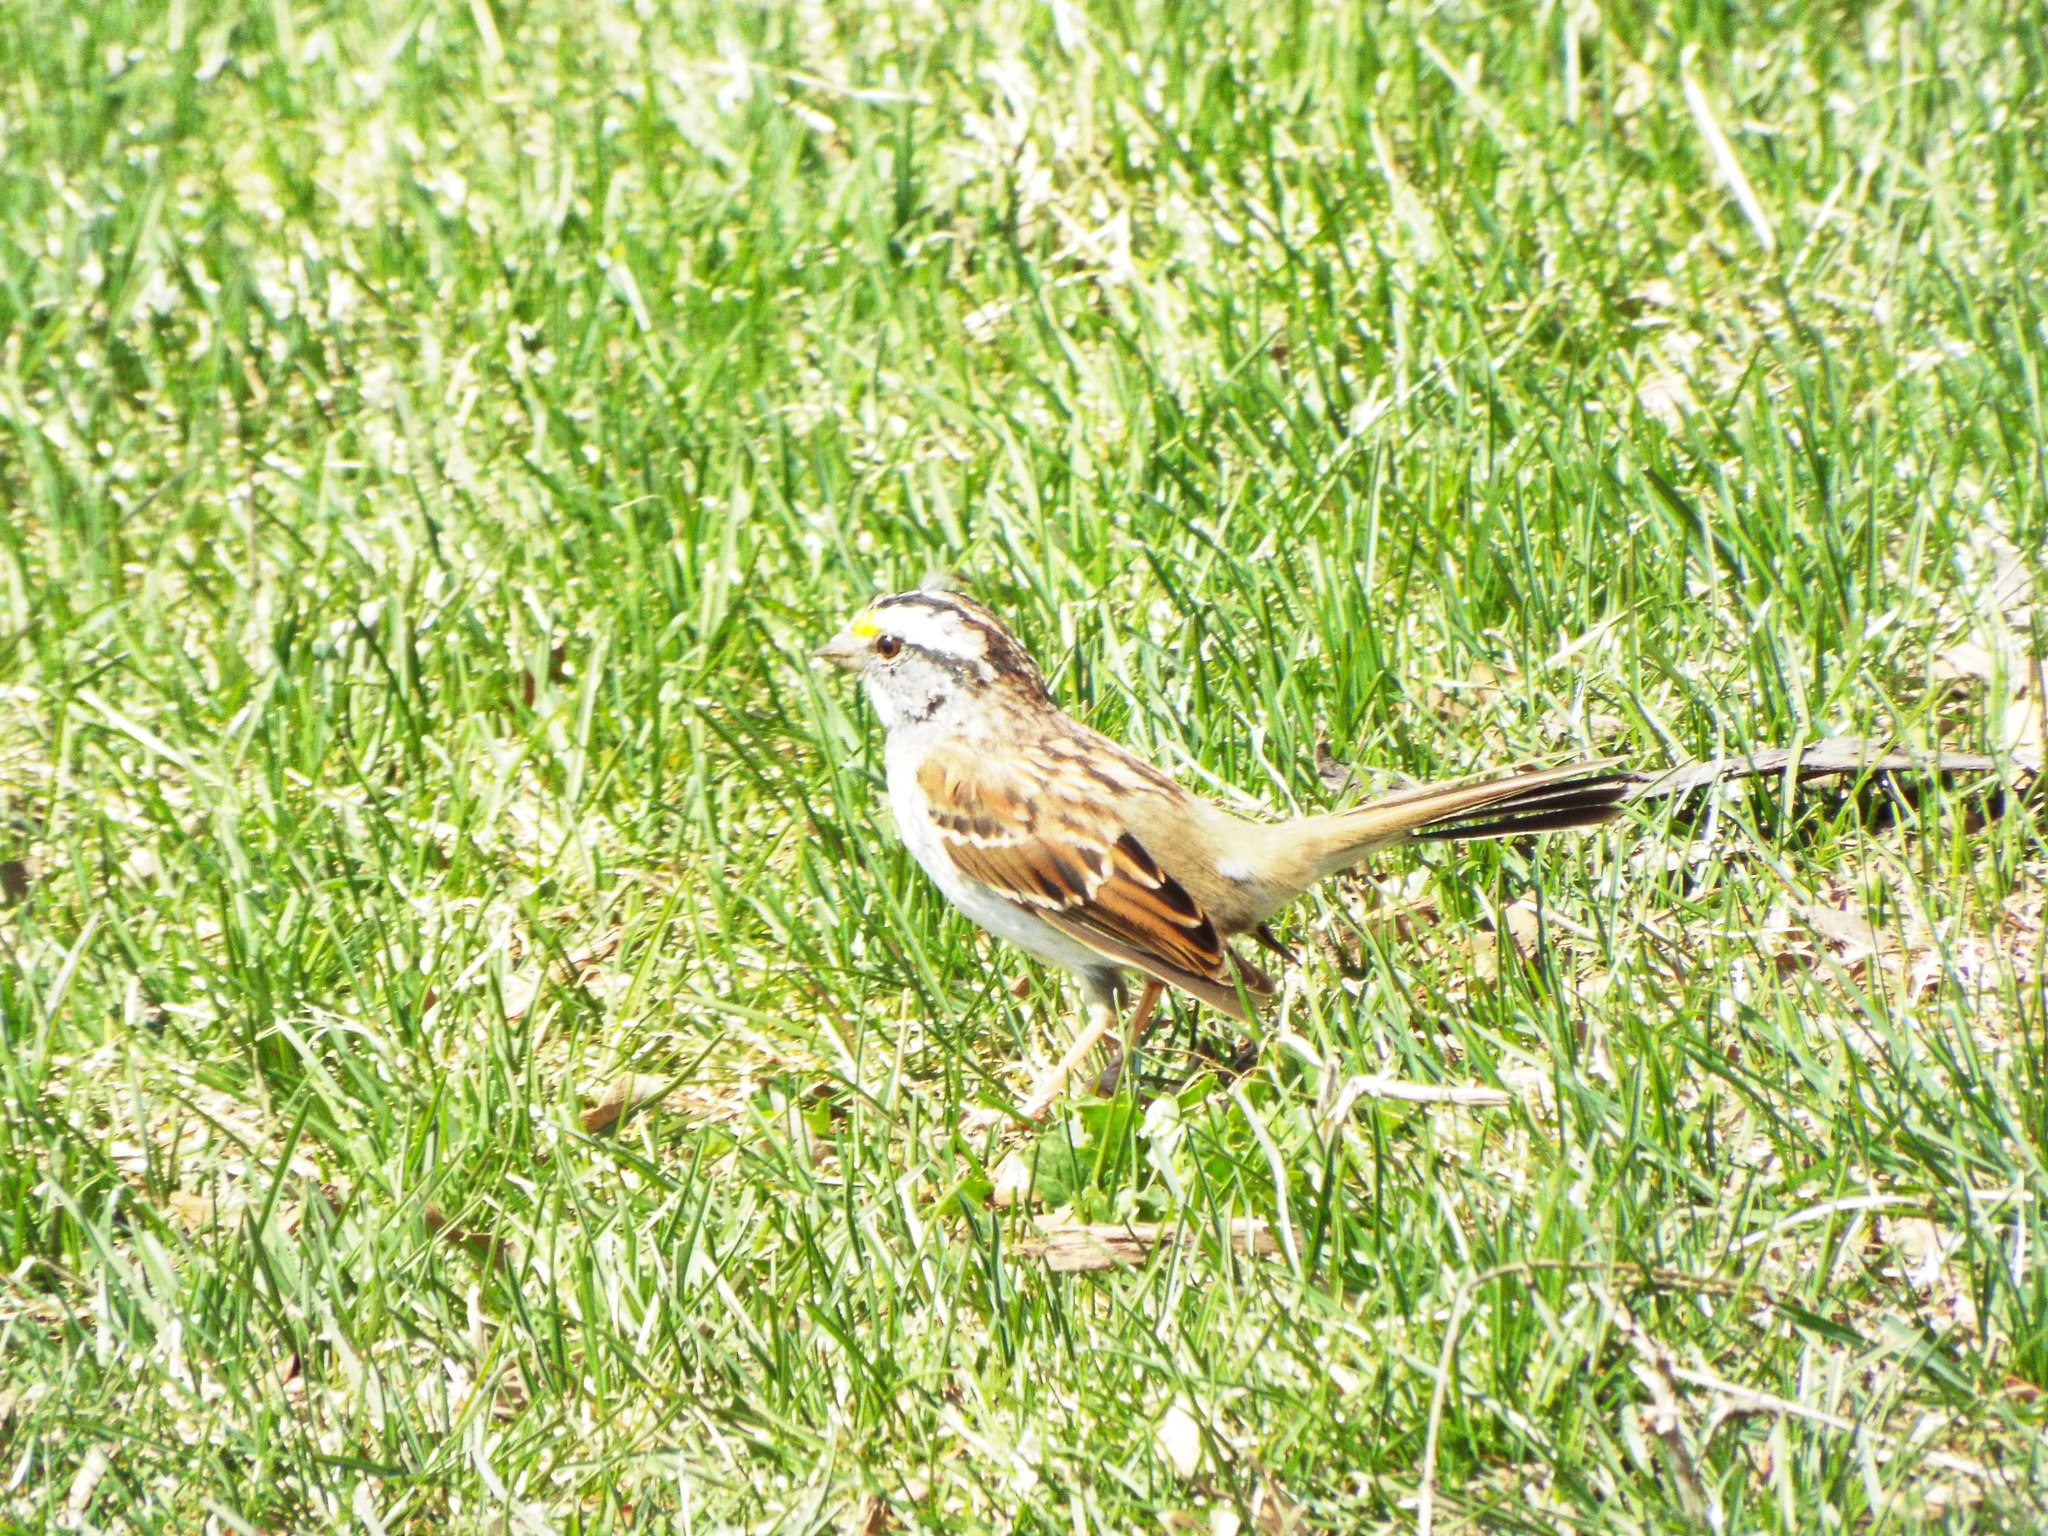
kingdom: Animalia
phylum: Chordata
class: Aves
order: Passeriformes
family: Passerellidae
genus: Zonotrichia
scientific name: Zonotrichia albicollis
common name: White-throated sparrow
